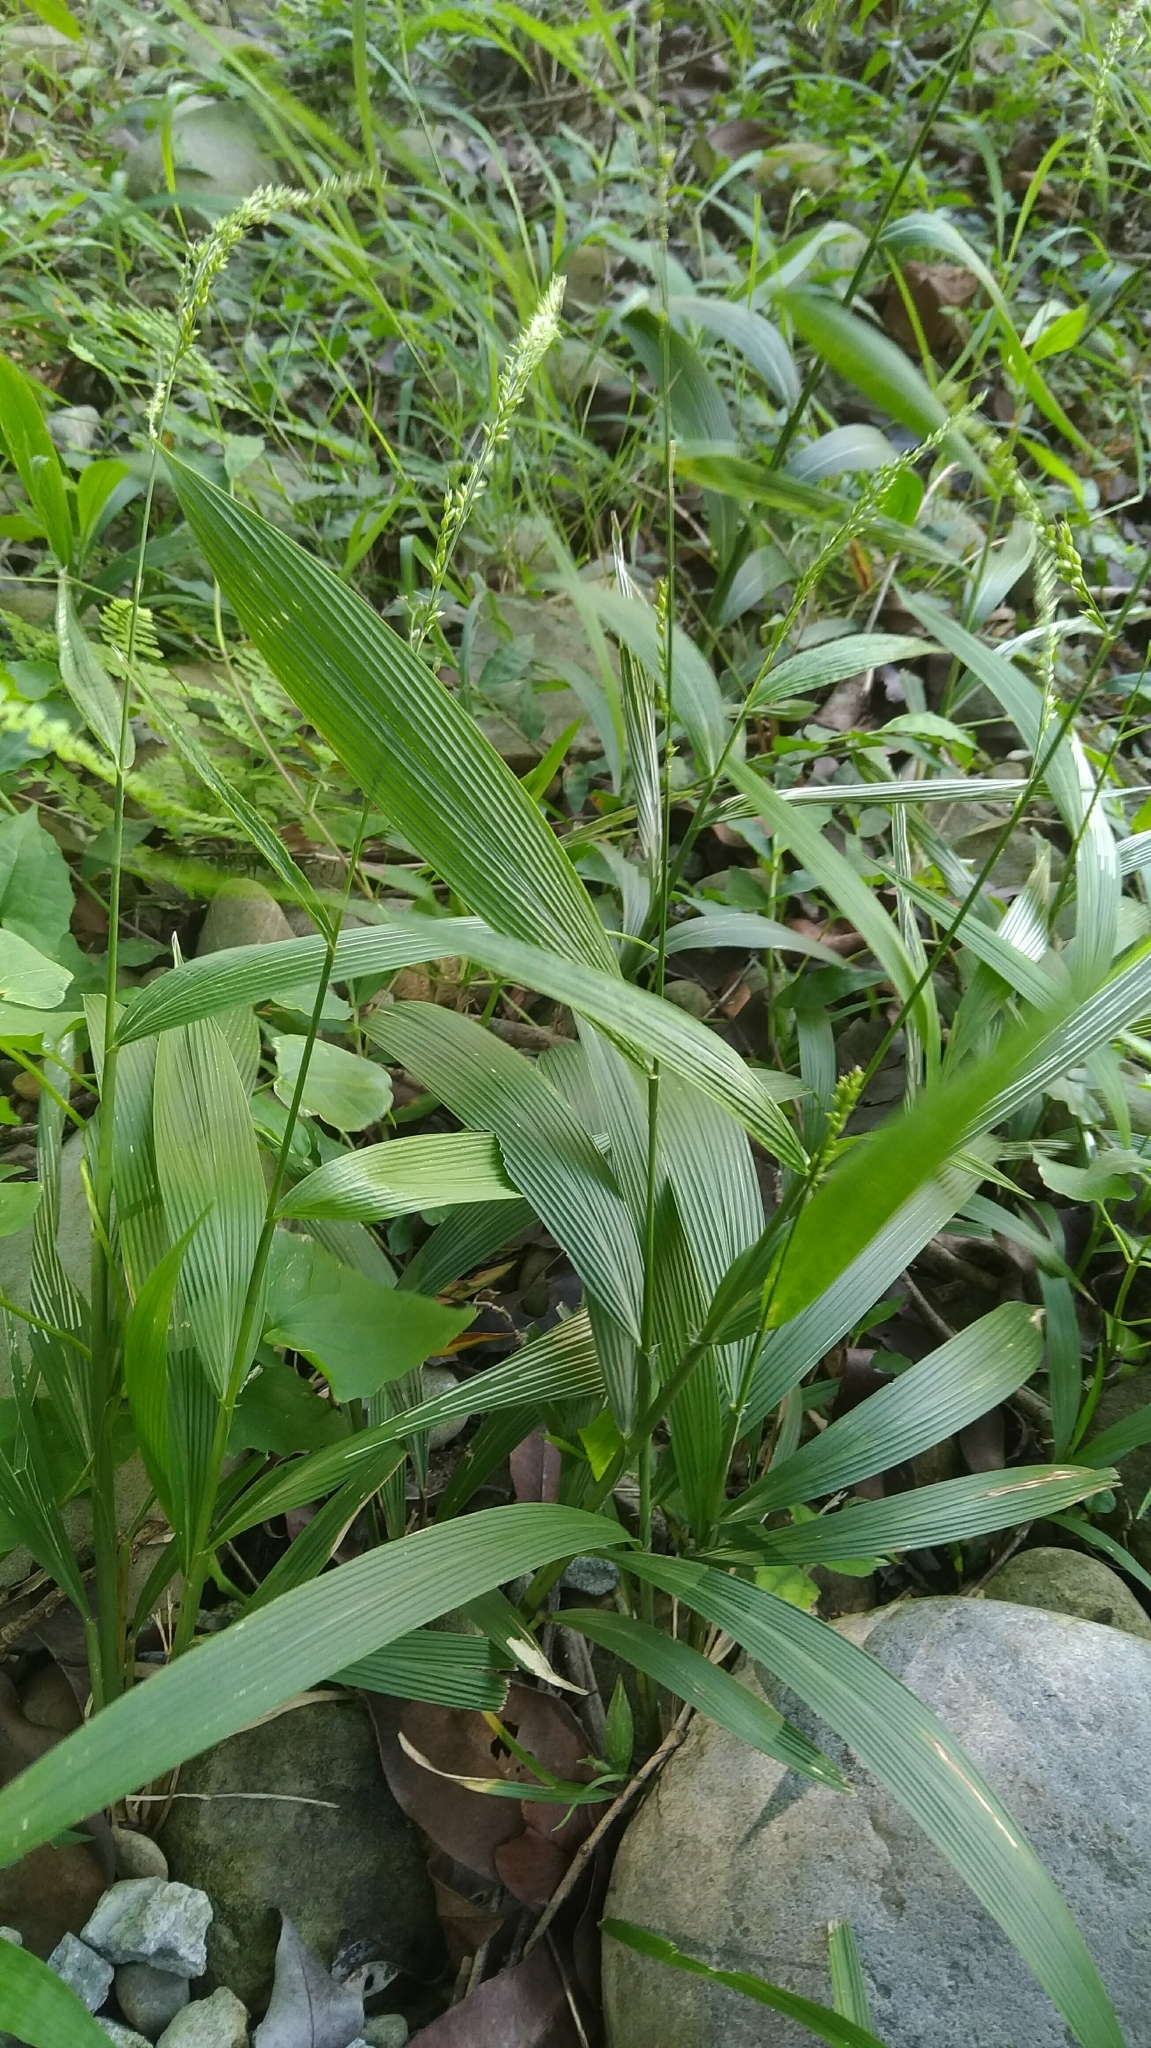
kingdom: Plantae
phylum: Tracheophyta
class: Liliopsida
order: Poales
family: Poaceae
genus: Setaria
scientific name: Setaria palmifolia
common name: Broadleaved bristlegrass
